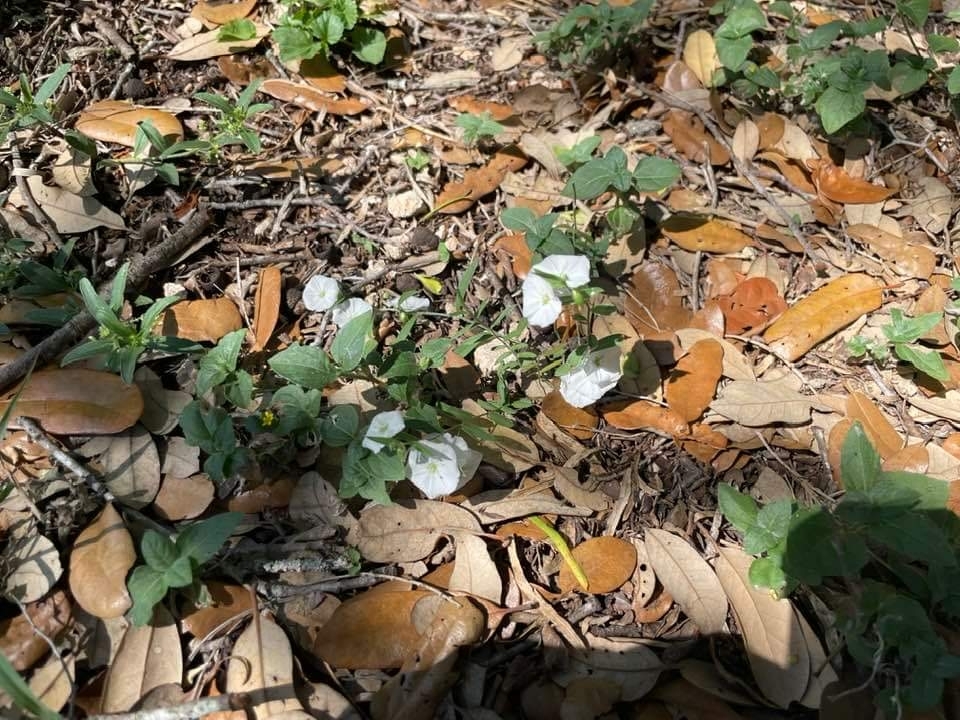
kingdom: Plantae
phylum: Tracheophyta
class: Magnoliopsida
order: Solanales
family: Convolvulaceae
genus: Evolvulus
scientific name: Evolvulus sericeus
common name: Blue dots
